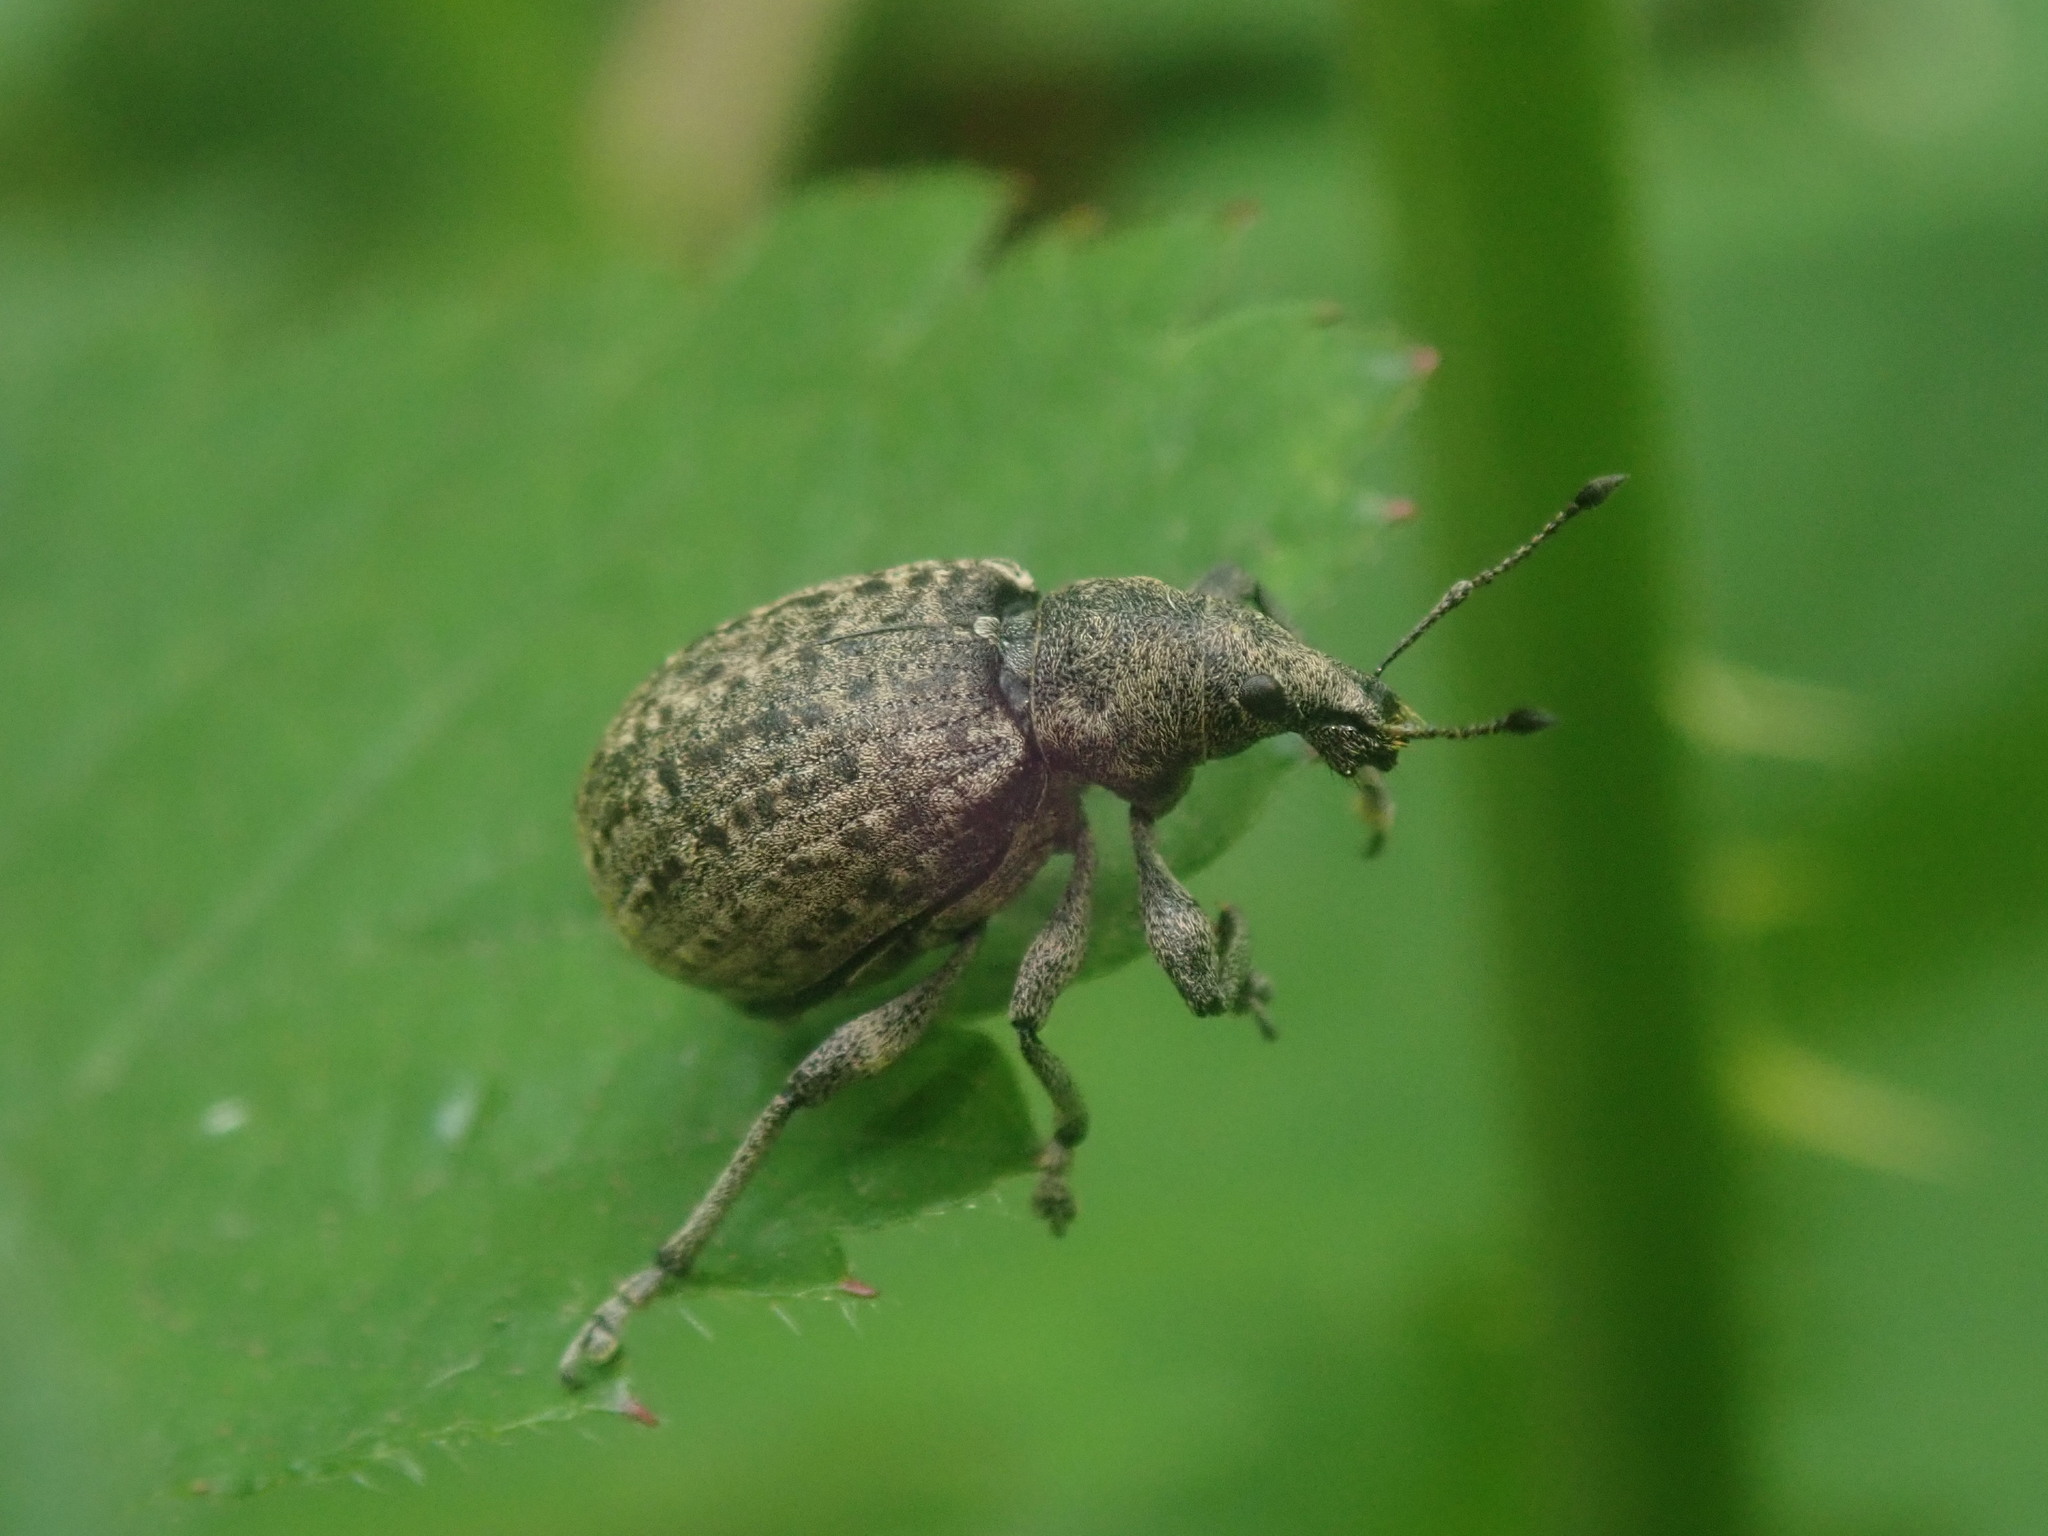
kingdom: Animalia
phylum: Arthropoda
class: Insecta
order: Coleoptera
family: Curculionidae
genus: Liophloeus
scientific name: Liophloeus tessulatus
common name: Weevil
